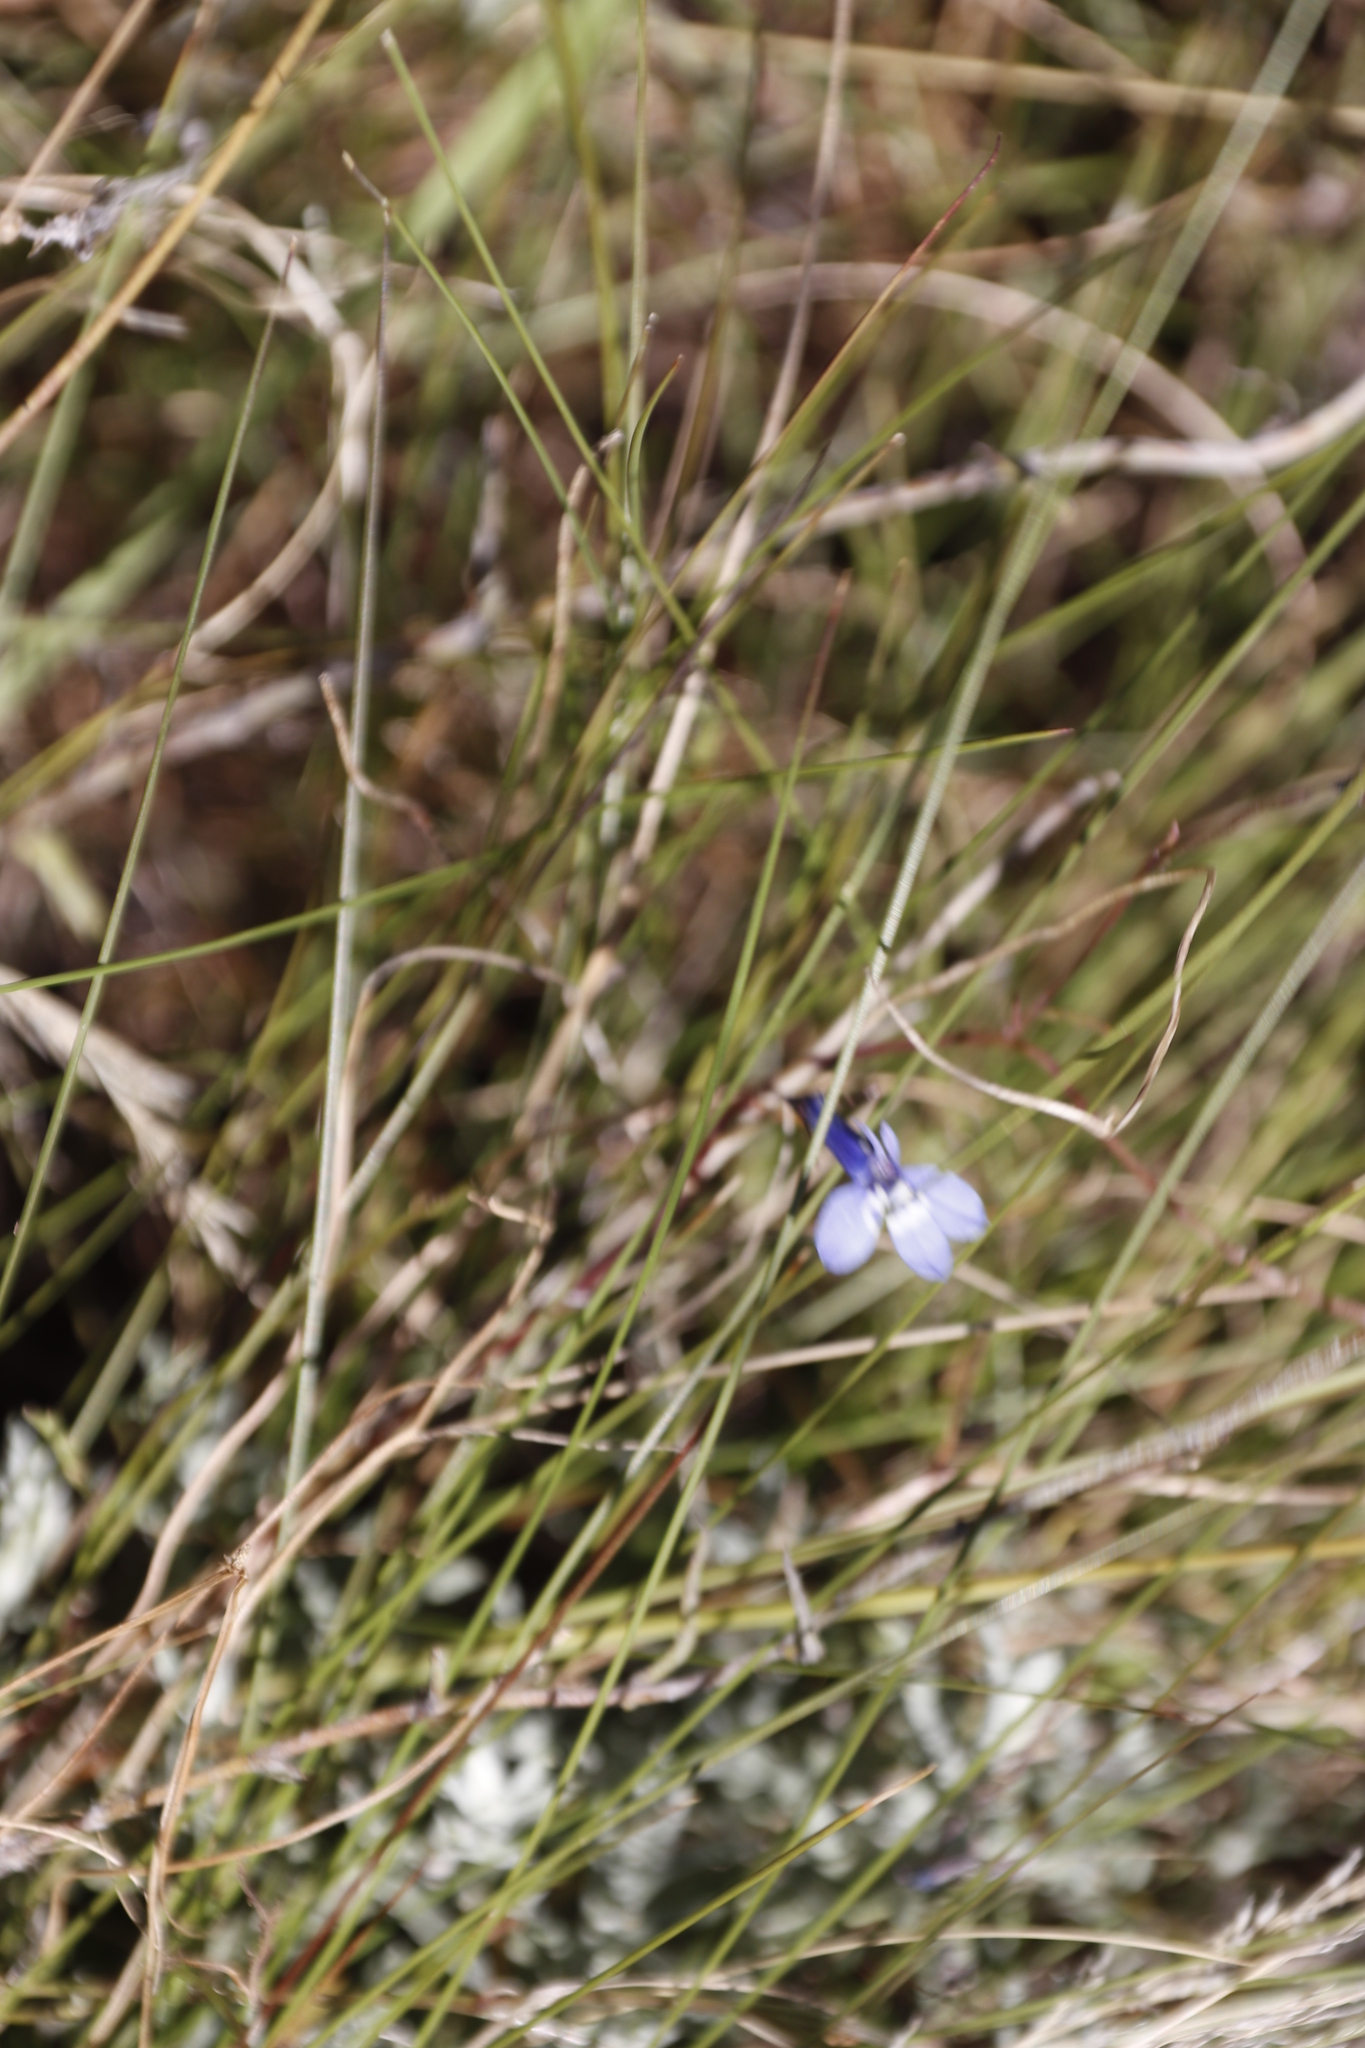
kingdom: Plantae
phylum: Tracheophyta
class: Magnoliopsida
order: Asterales
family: Campanulaceae
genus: Lobelia
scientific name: Lobelia flaccida
